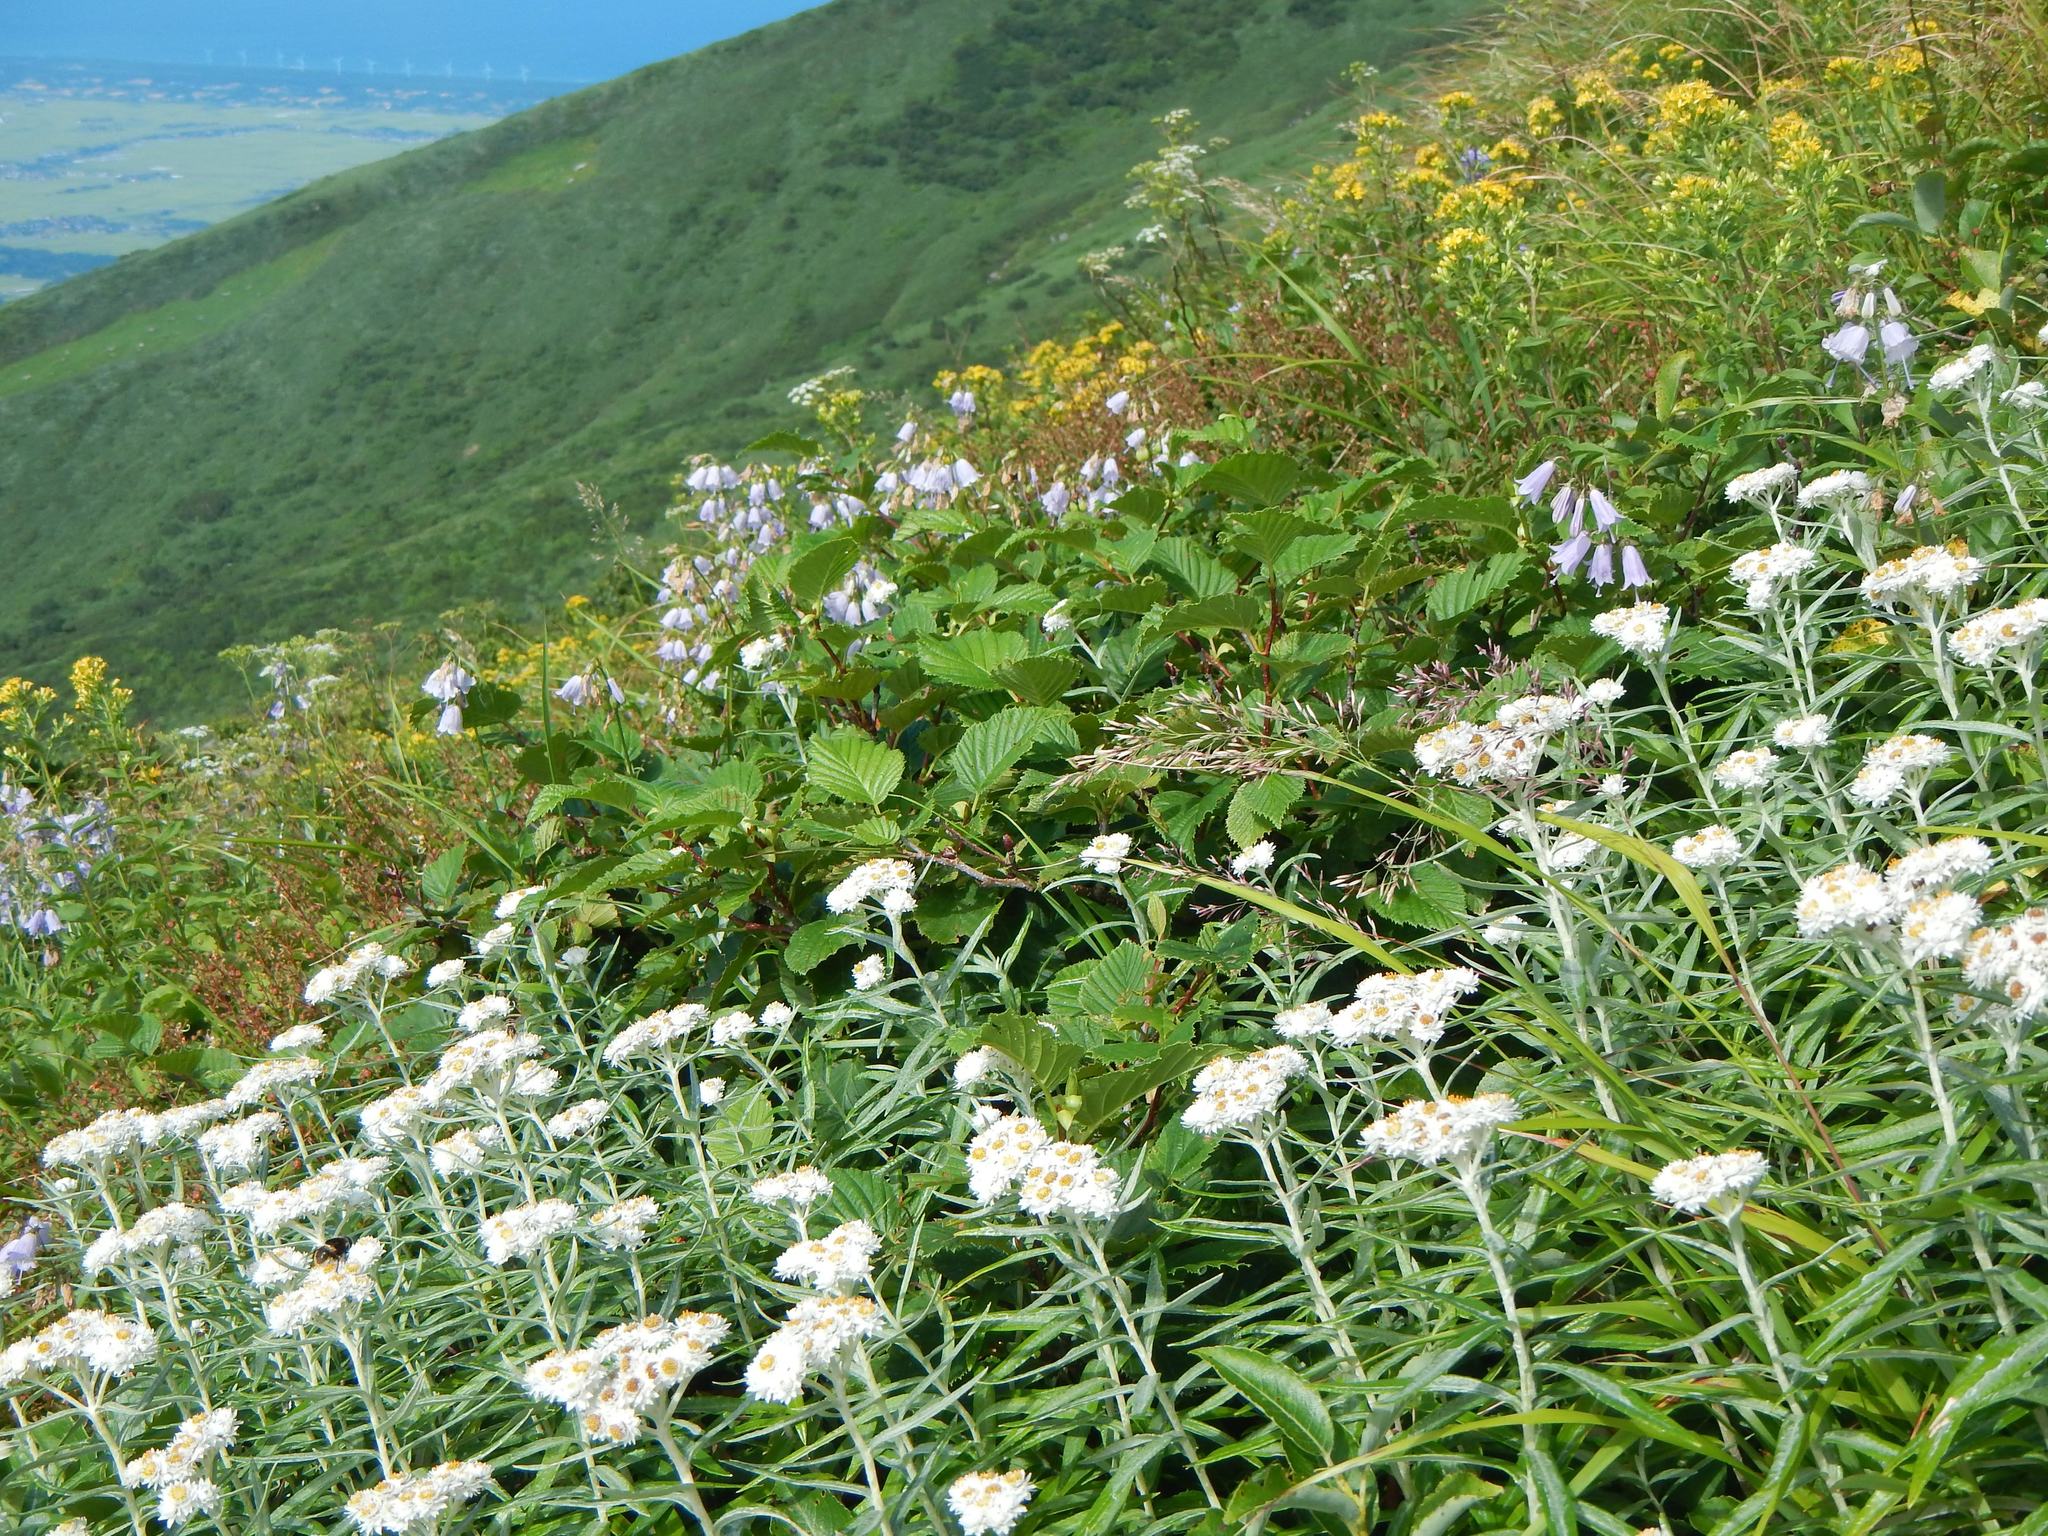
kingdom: Plantae
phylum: Tracheophyta
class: Magnoliopsida
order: Asterales
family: Asteraceae
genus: Anaphalis
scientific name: Anaphalis margaritacea
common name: Pearly everlasting
